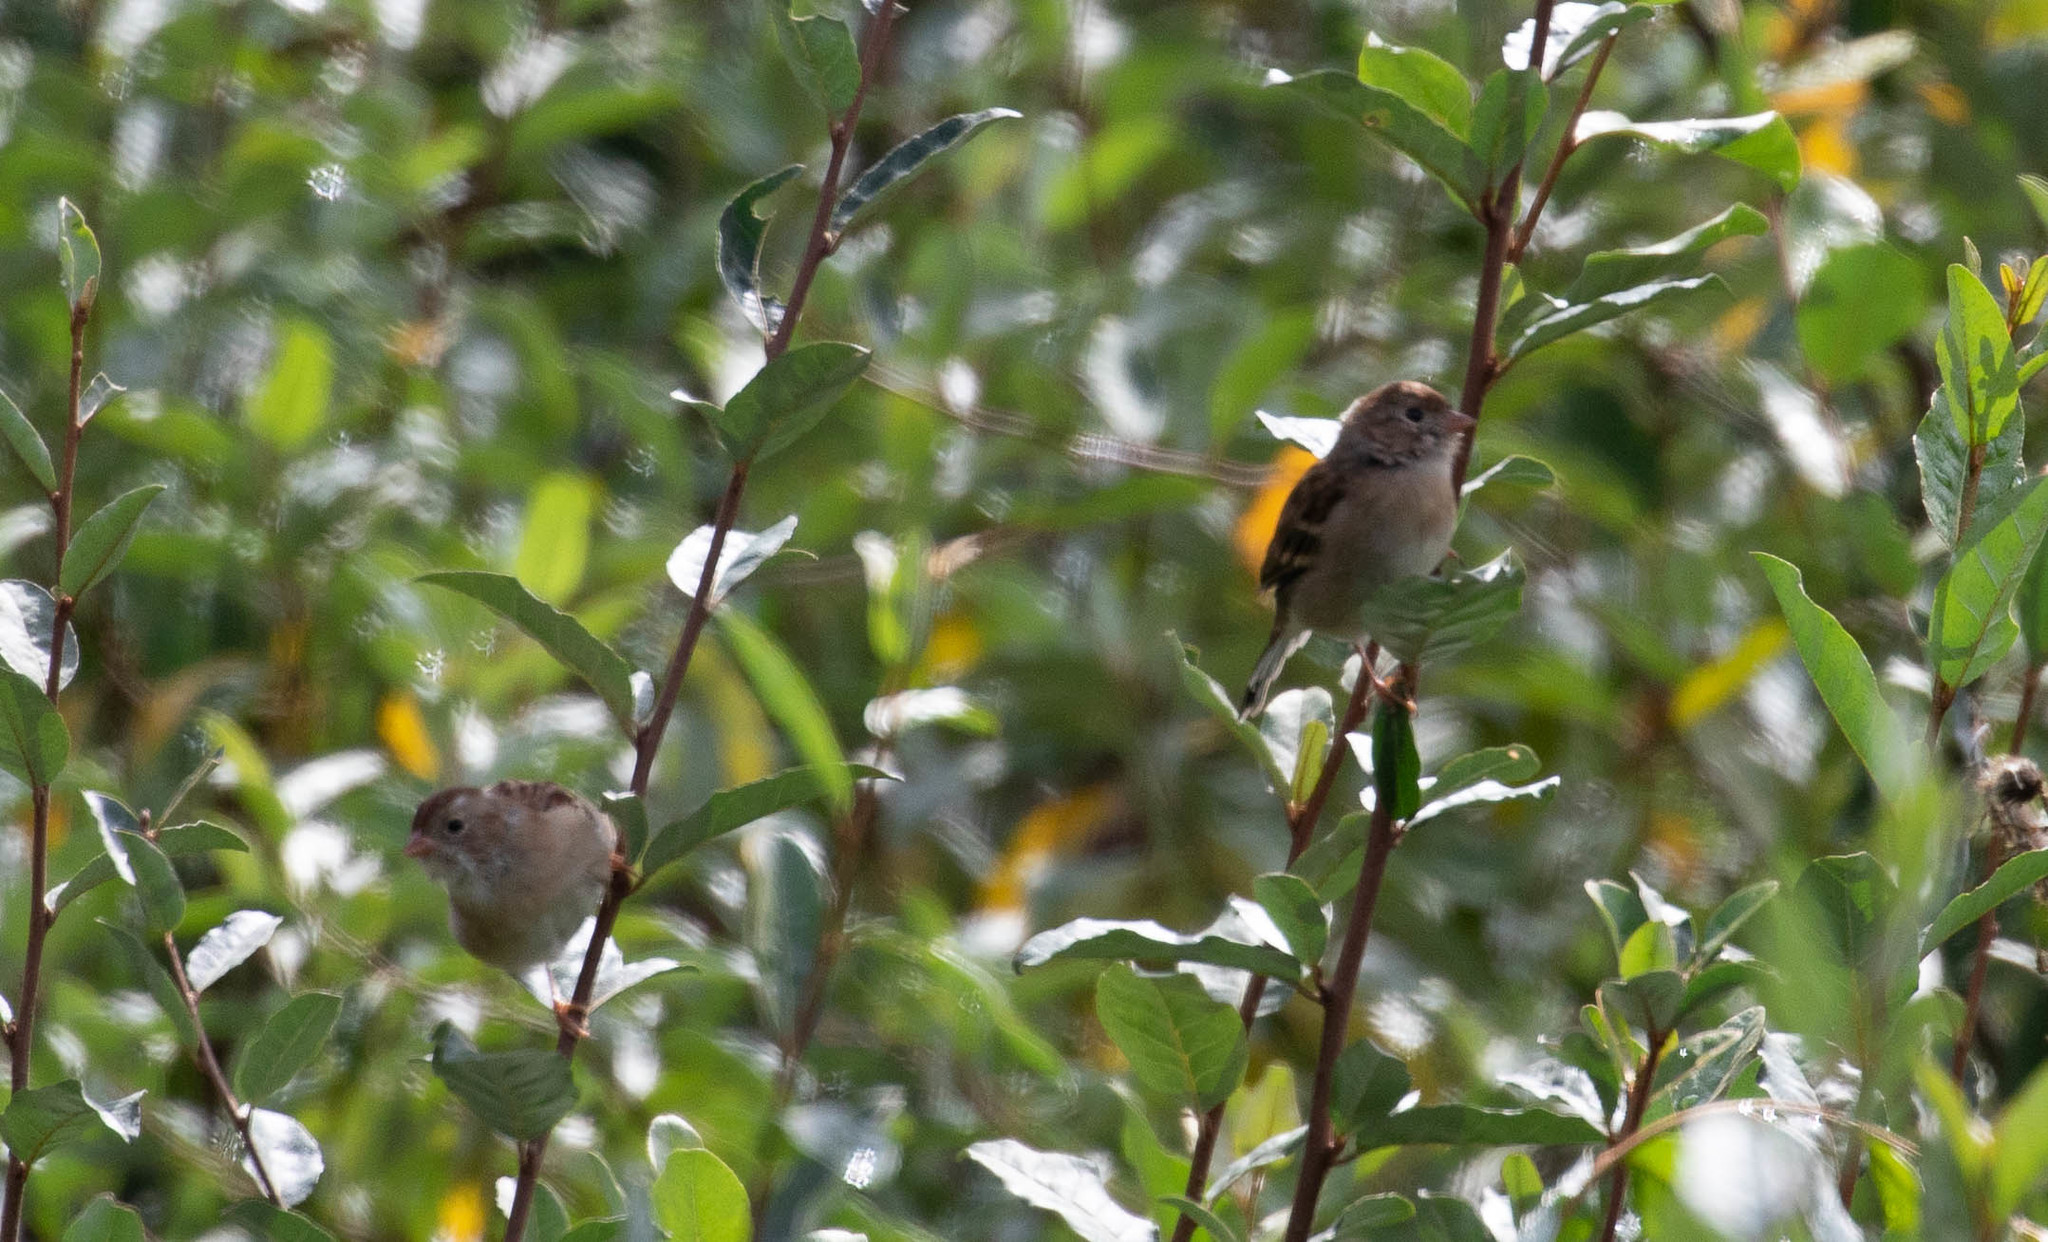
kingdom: Animalia
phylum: Chordata
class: Aves
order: Passeriformes
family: Passerellidae
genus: Spizella
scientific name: Spizella pusilla
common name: Field sparrow
